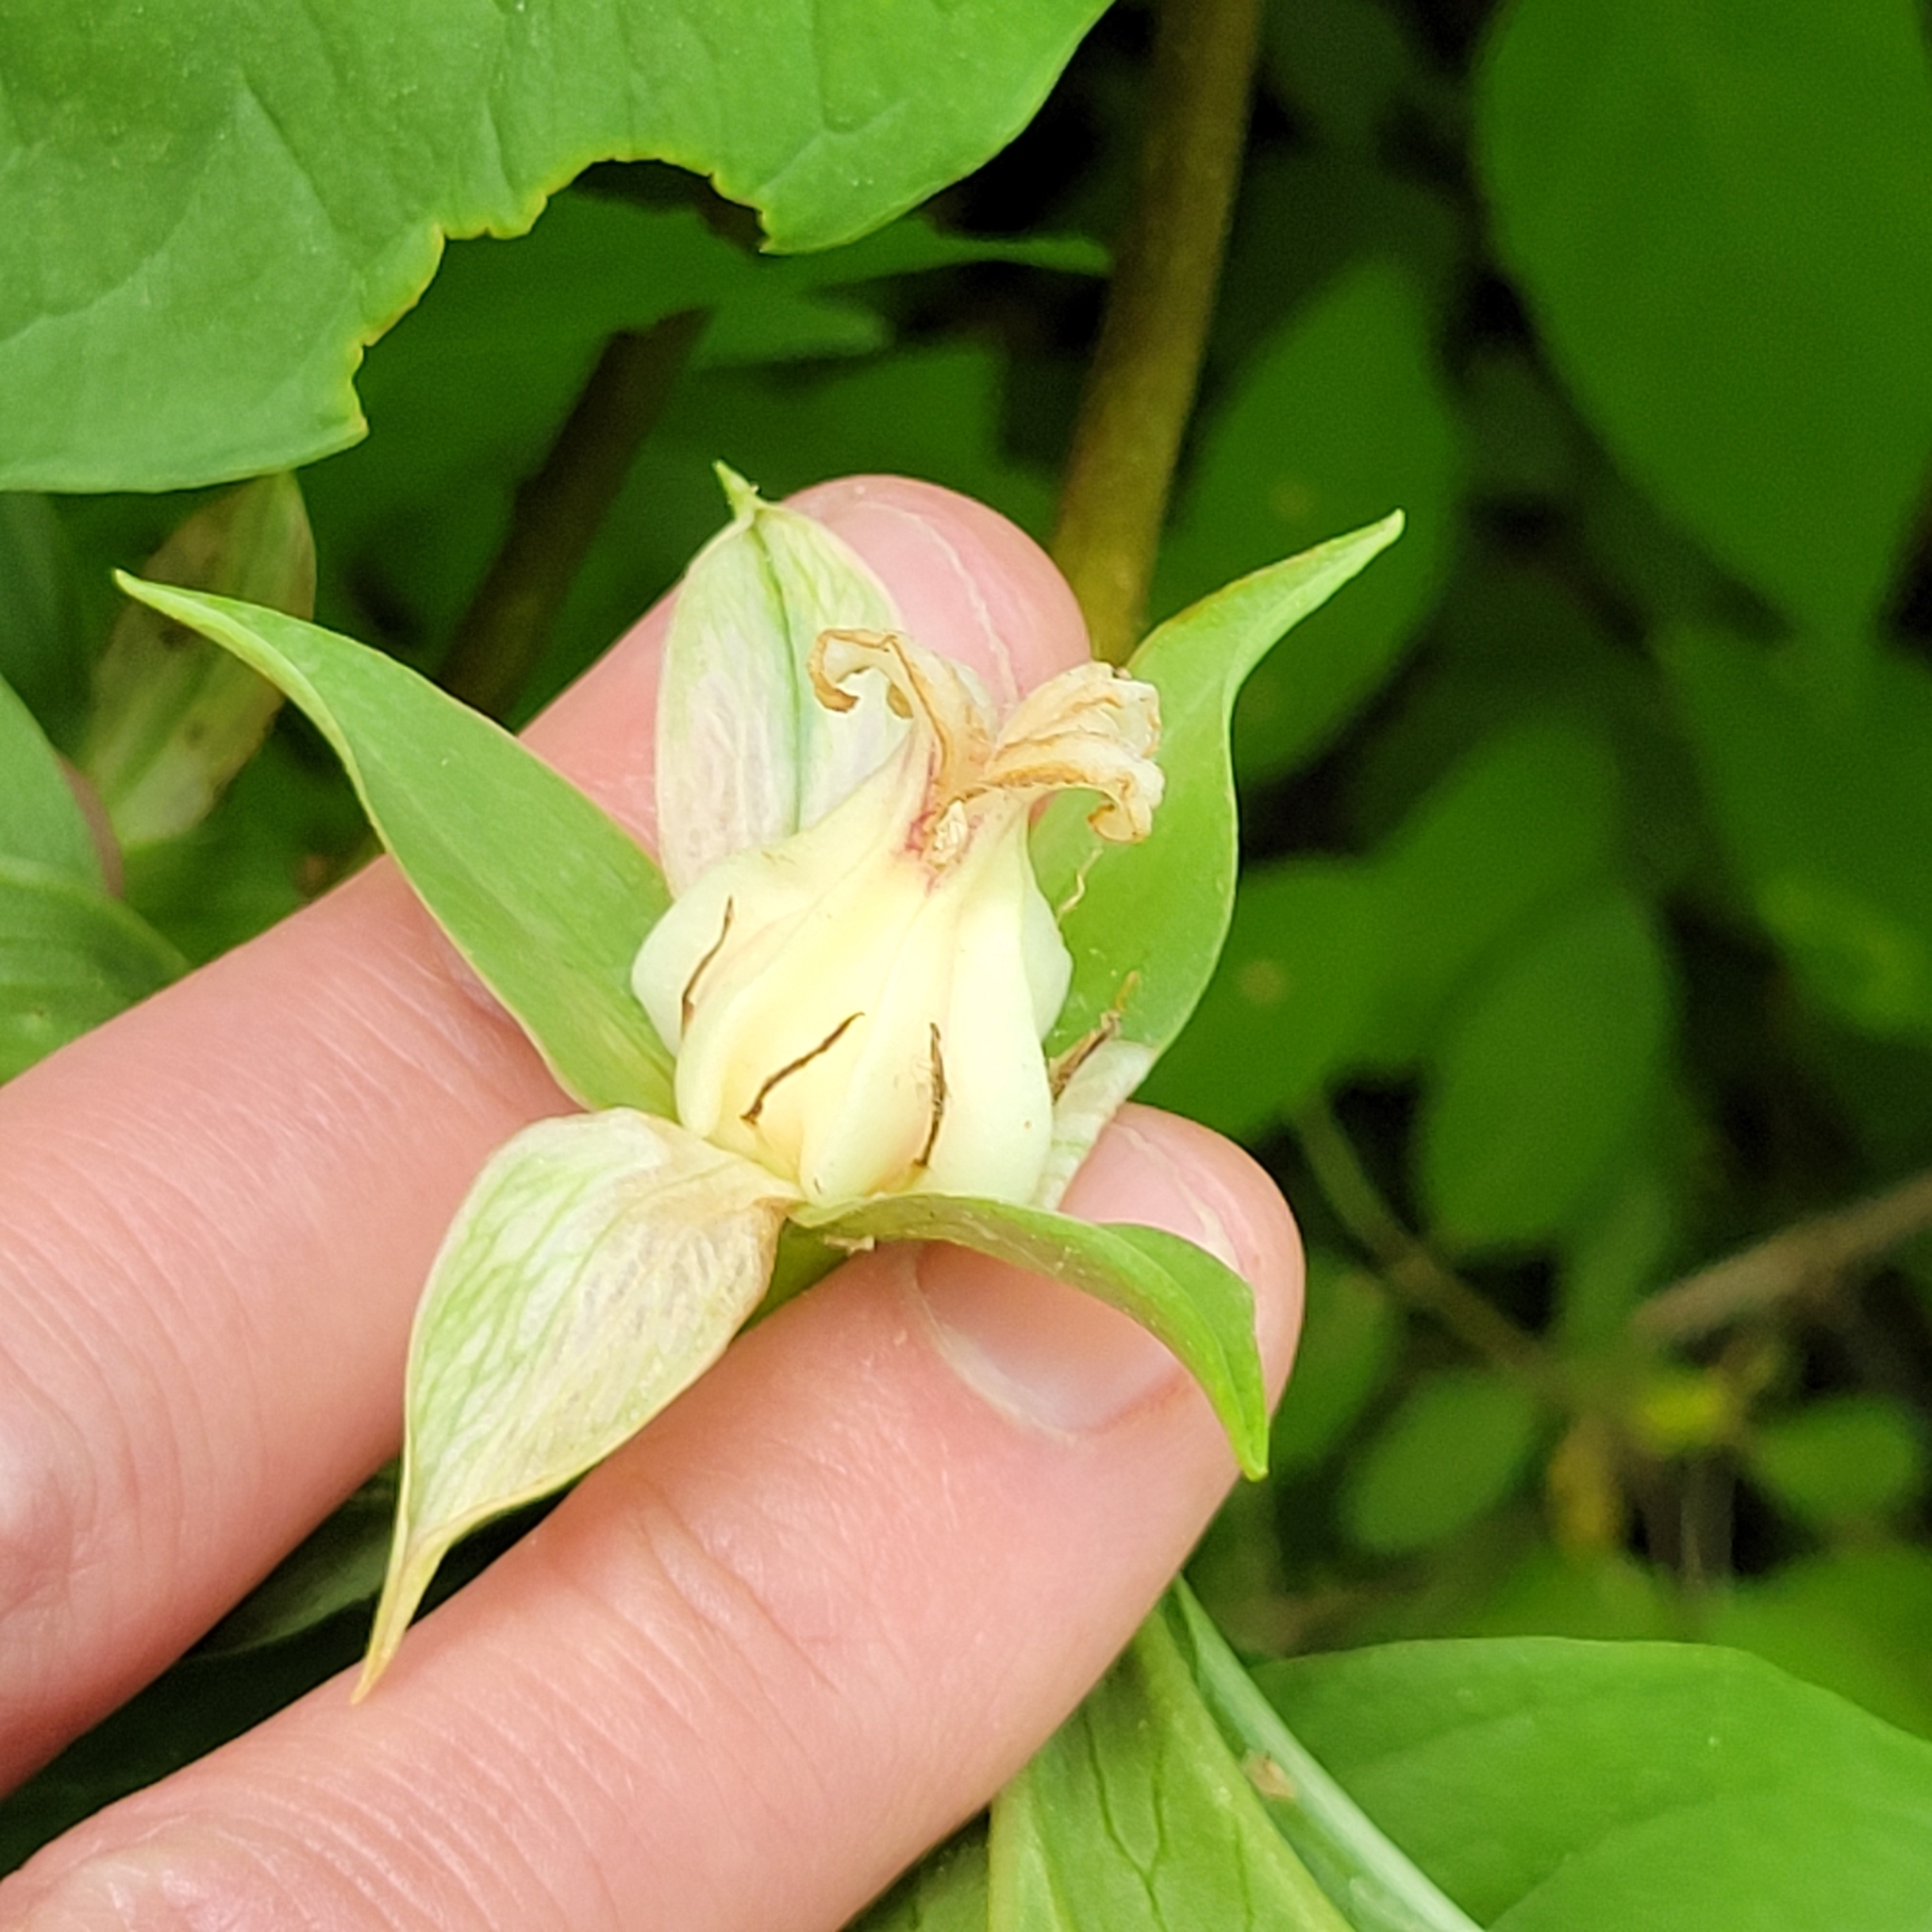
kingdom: Plantae
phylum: Tracheophyta
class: Liliopsida
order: Liliales
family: Melanthiaceae
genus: Trillium
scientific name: Trillium cernuum
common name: Nodding trillium
